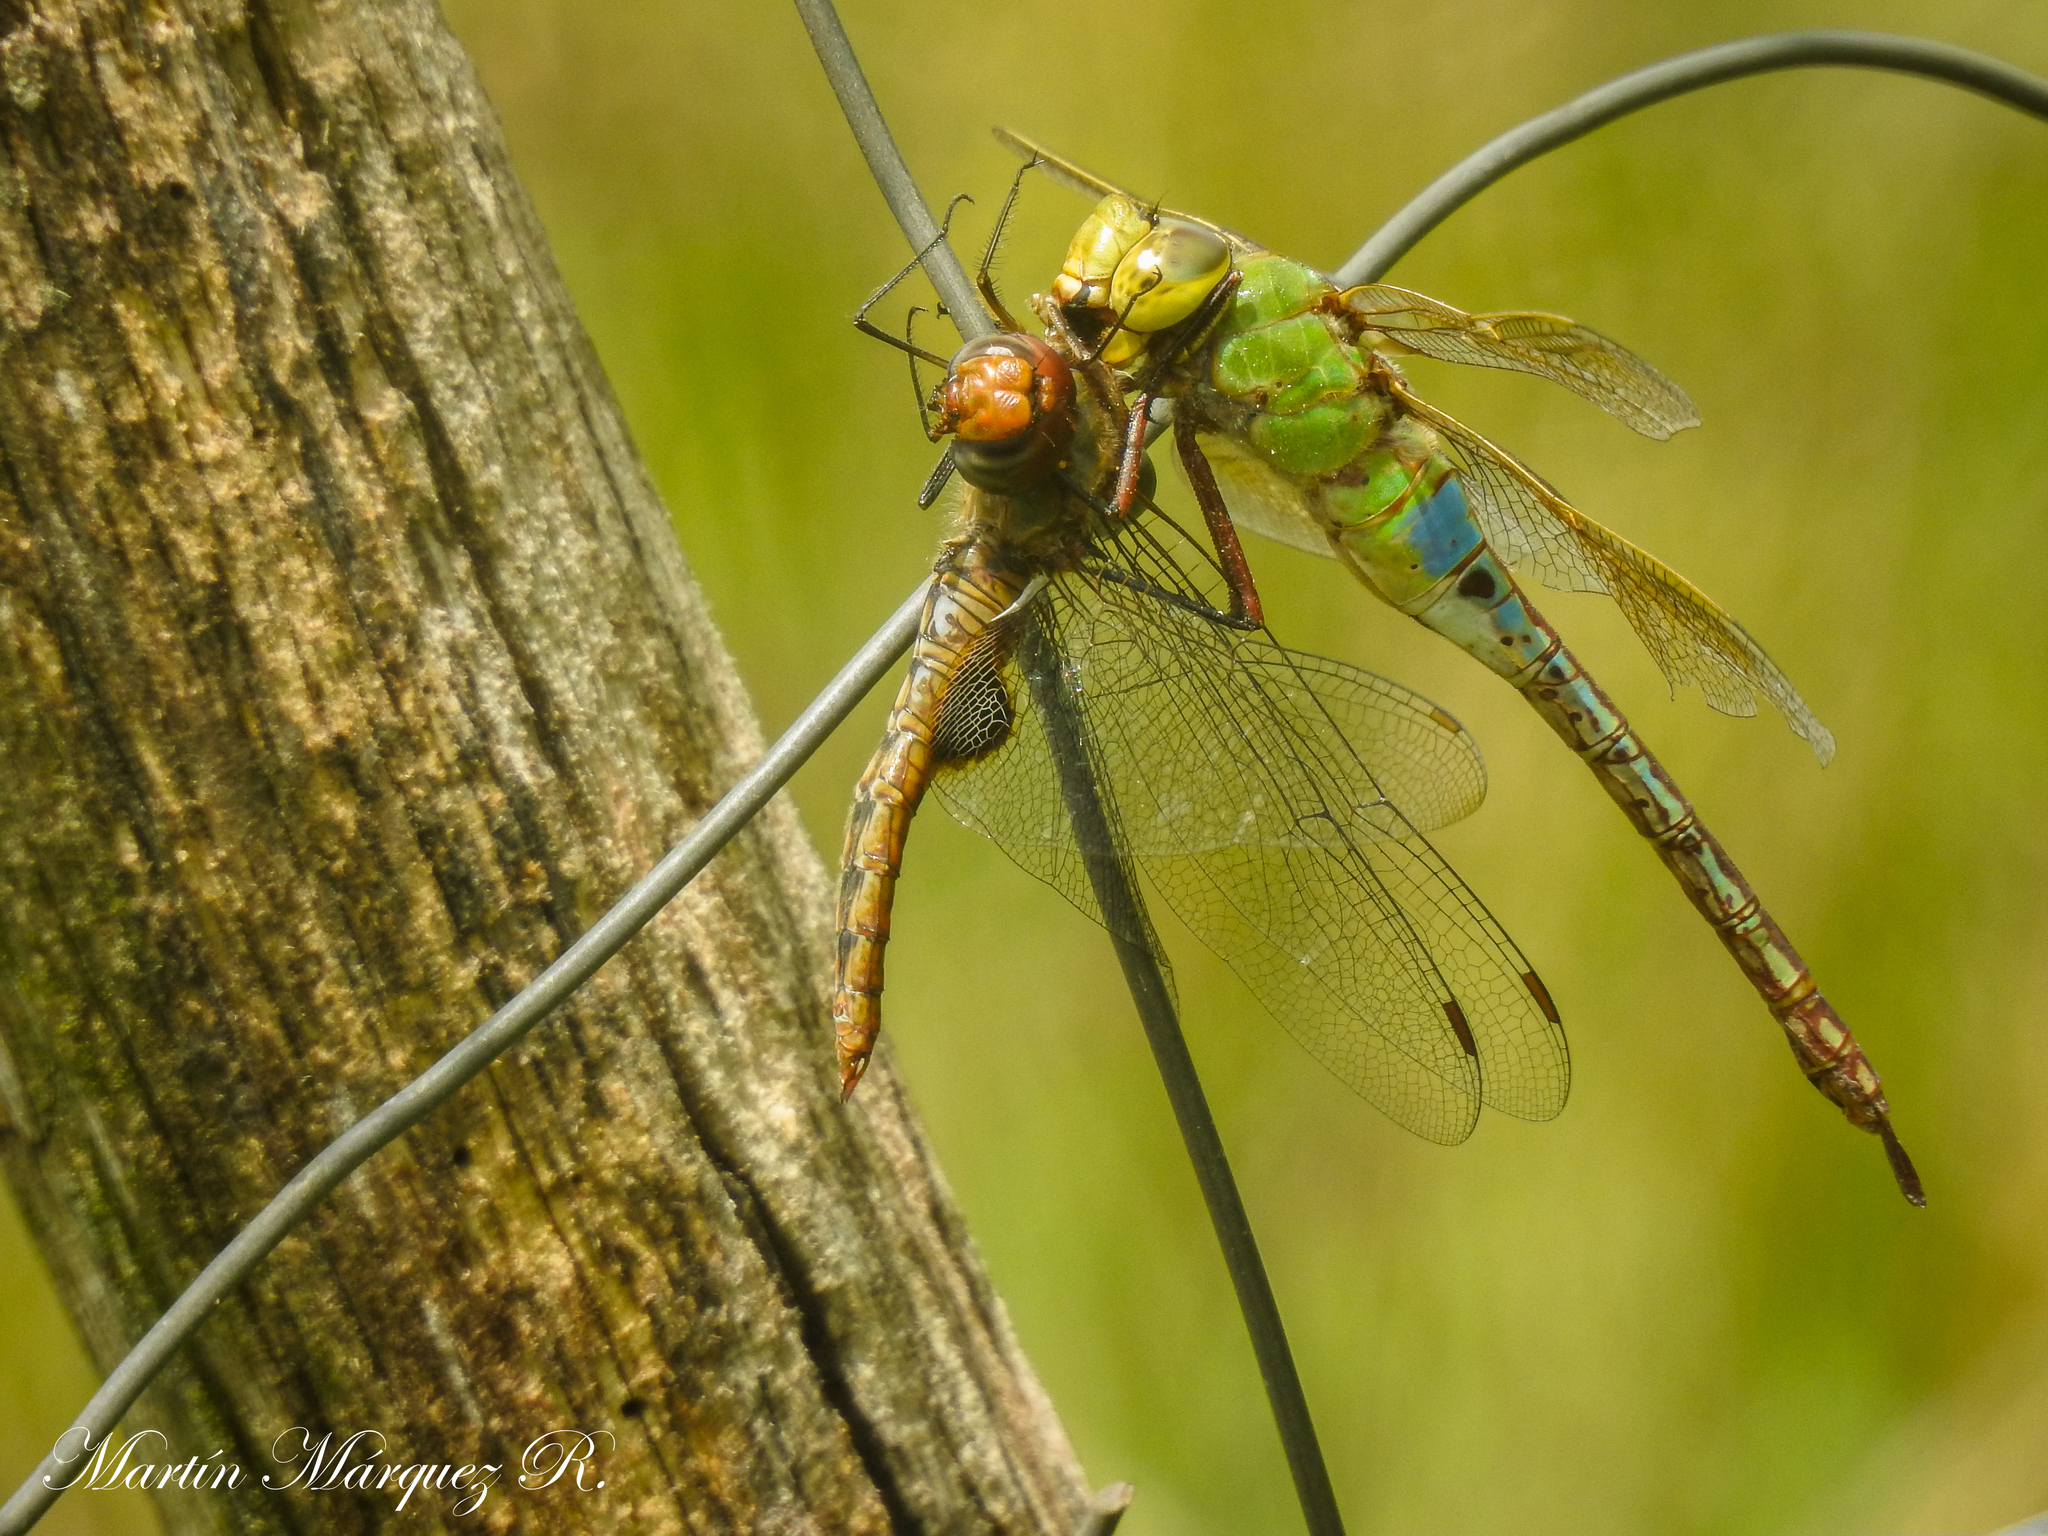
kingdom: Animalia
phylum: Arthropoda
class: Insecta
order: Odonata
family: Aeshnidae
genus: Anax
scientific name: Anax junius
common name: Common green darner
